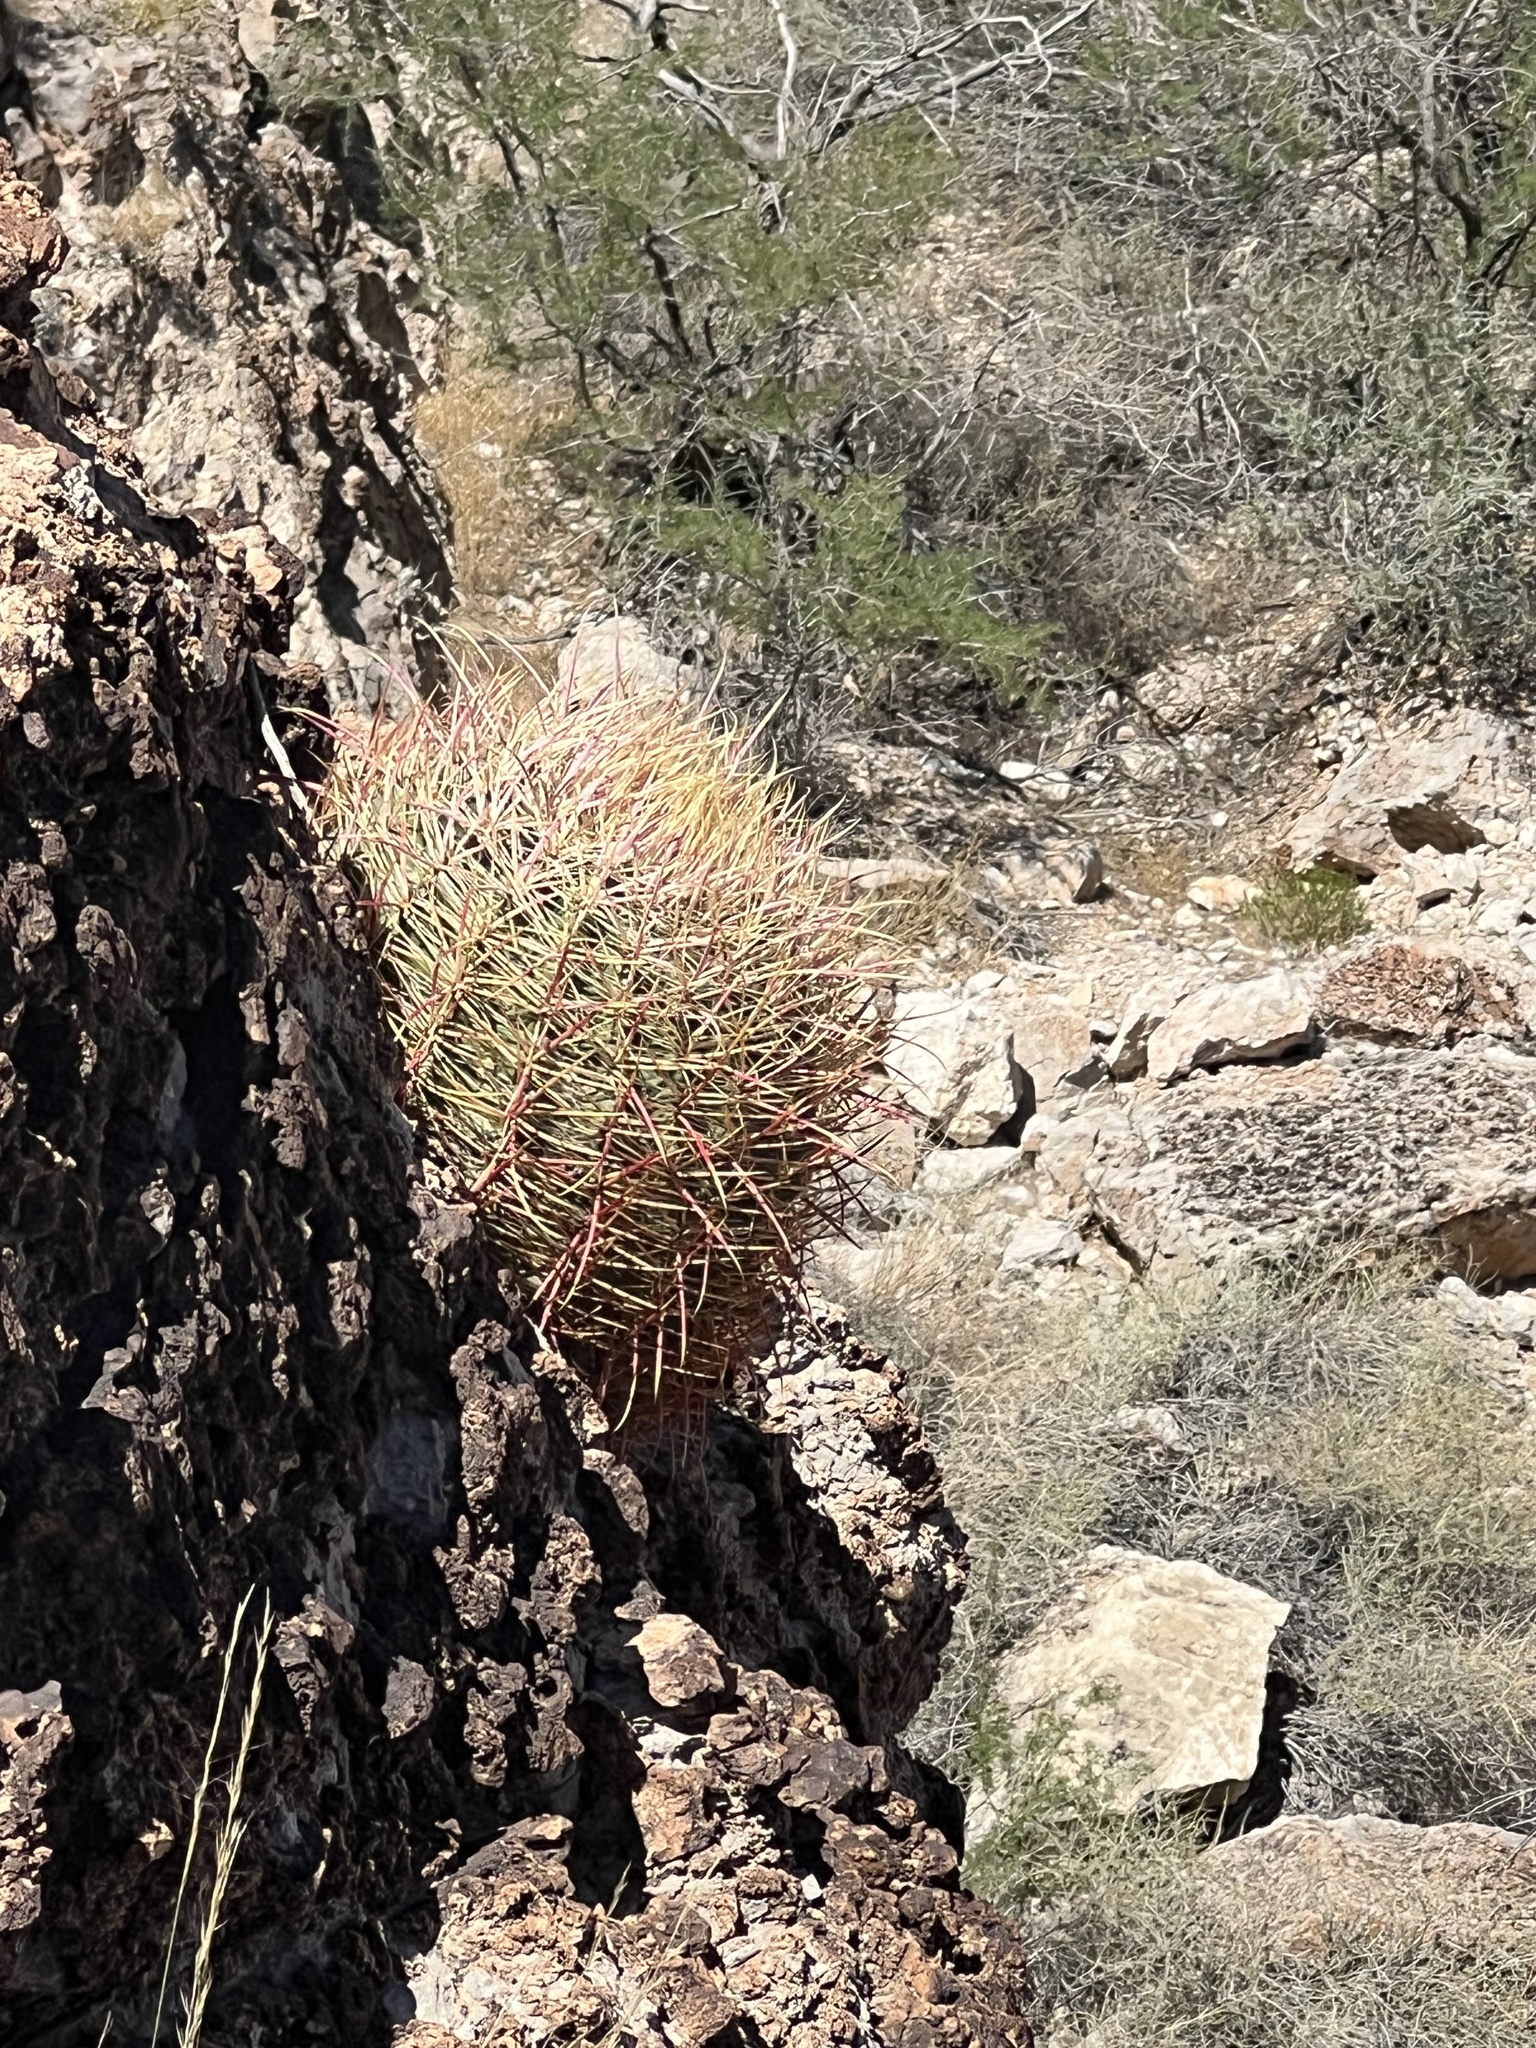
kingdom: Plantae
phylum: Tracheophyta
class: Magnoliopsida
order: Caryophyllales
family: Cactaceae
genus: Ferocactus
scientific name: Ferocactus cylindraceus
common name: California barrel cactus
